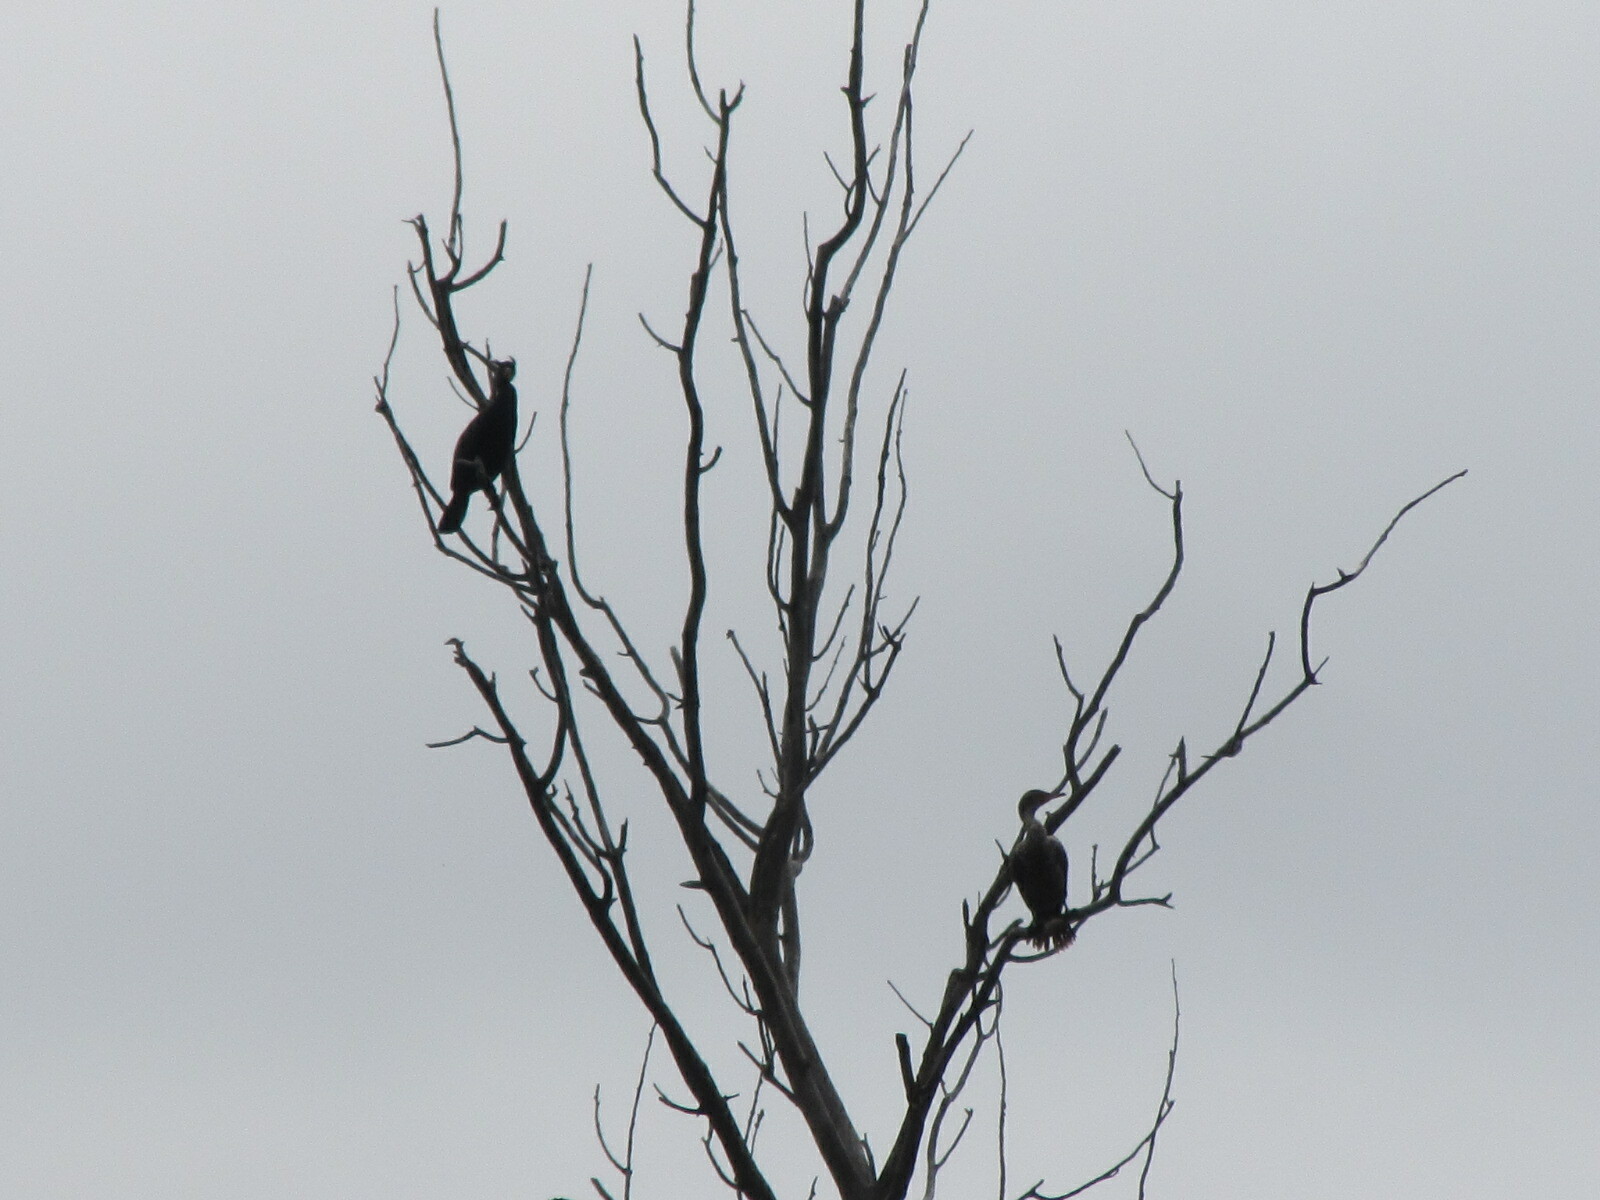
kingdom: Animalia
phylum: Chordata
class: Aves
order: Suliformes
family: Phalacrocoracidae
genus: Phalacrocorax
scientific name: Phalacrocorax auritus
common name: Double-crested cormorant
